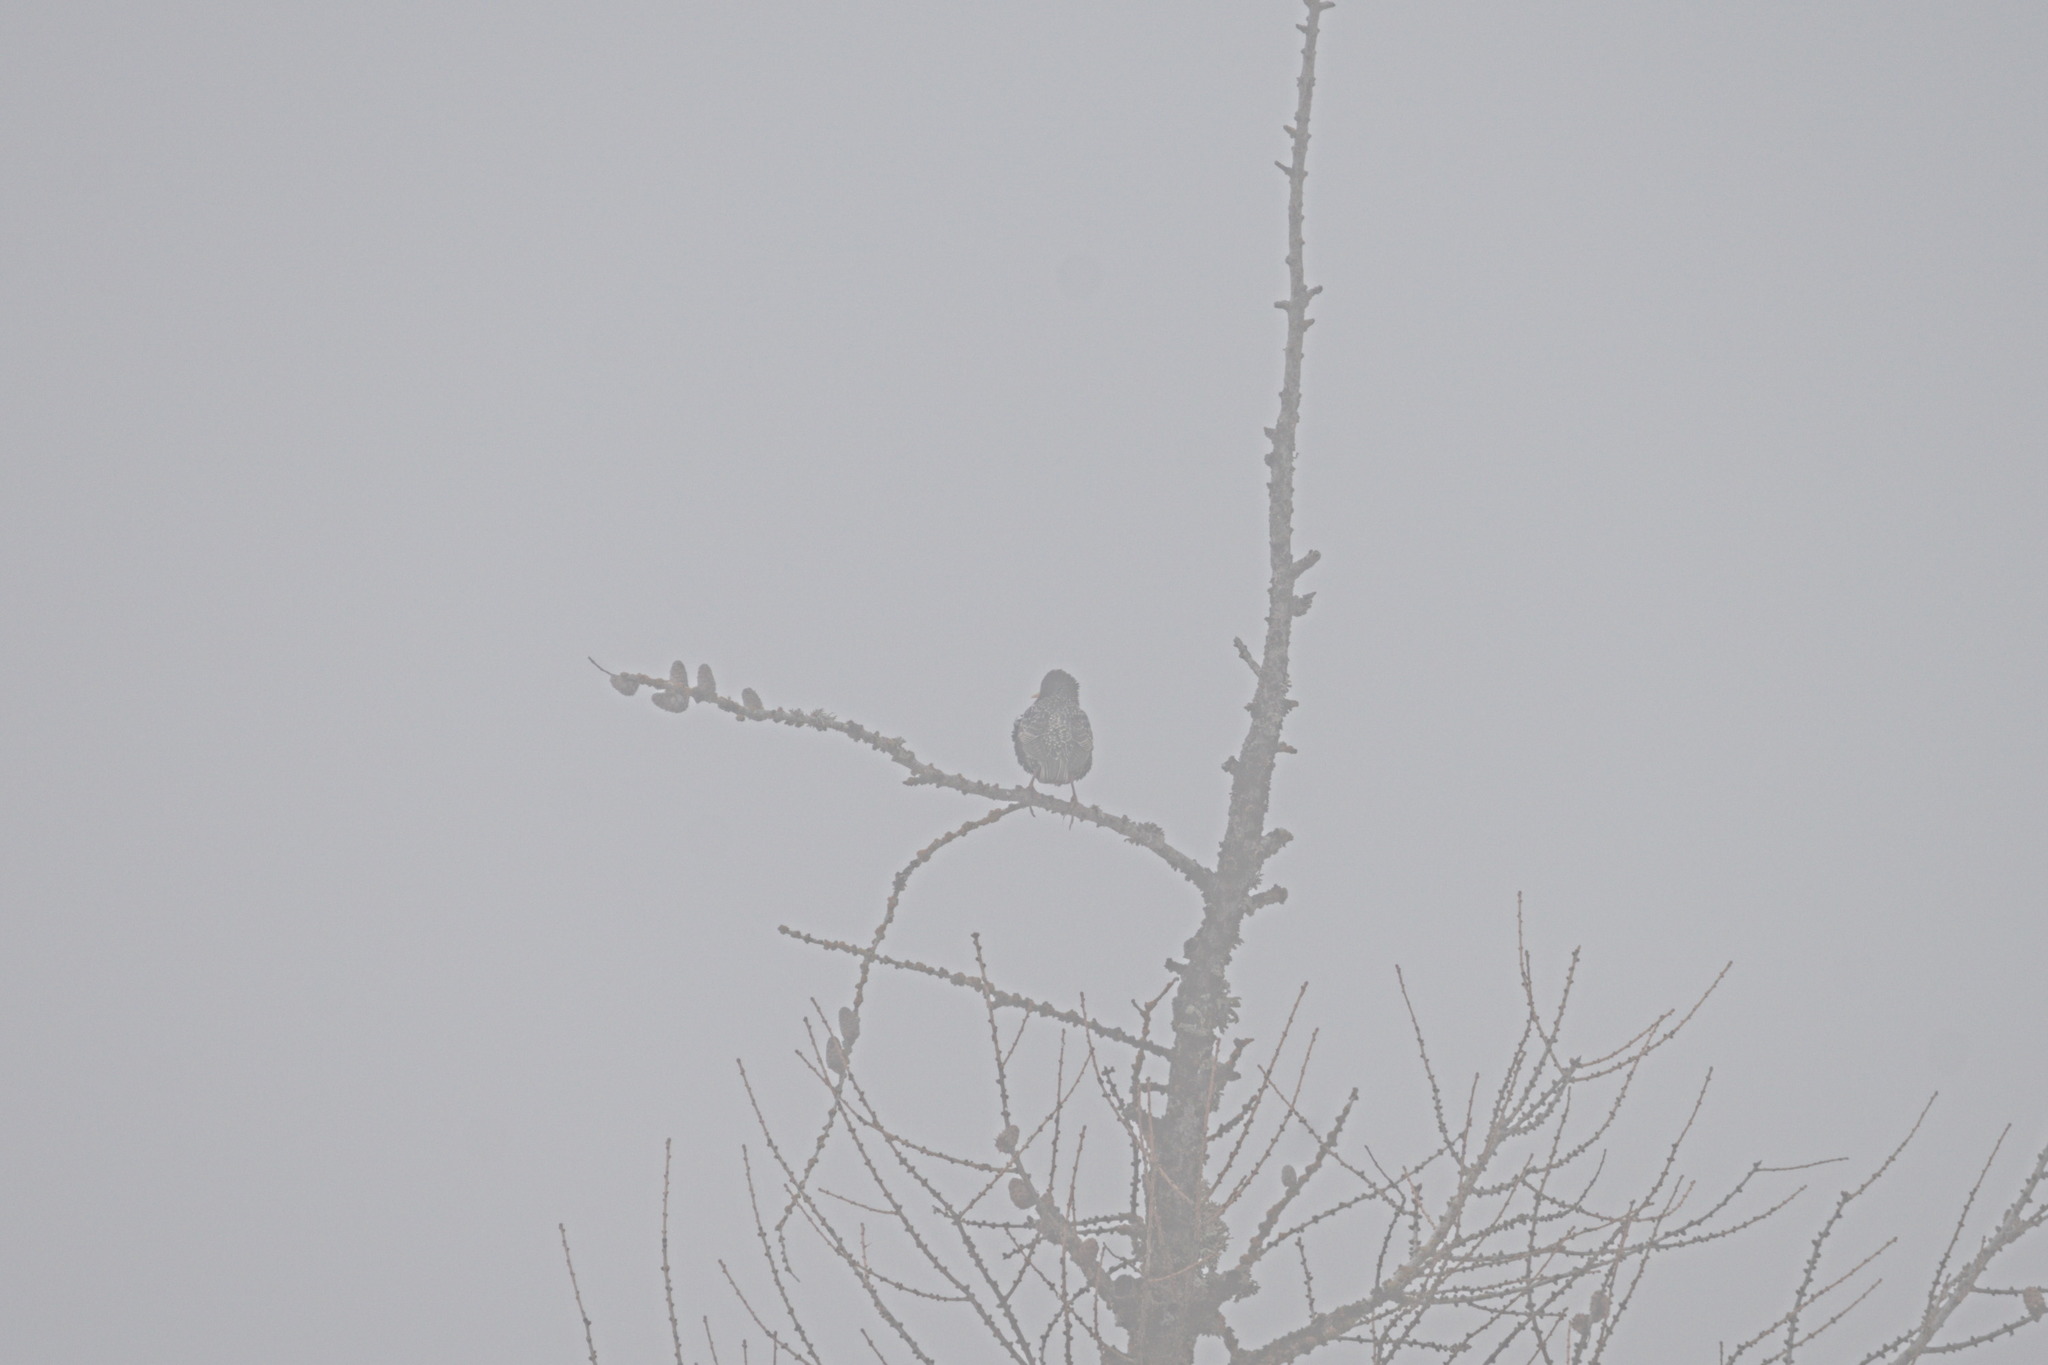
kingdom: Animalia
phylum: Chordata
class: Aves
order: Passeriformes
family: Sturnidae
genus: Sturnus
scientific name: Sturnus vulgaris
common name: Common starling
